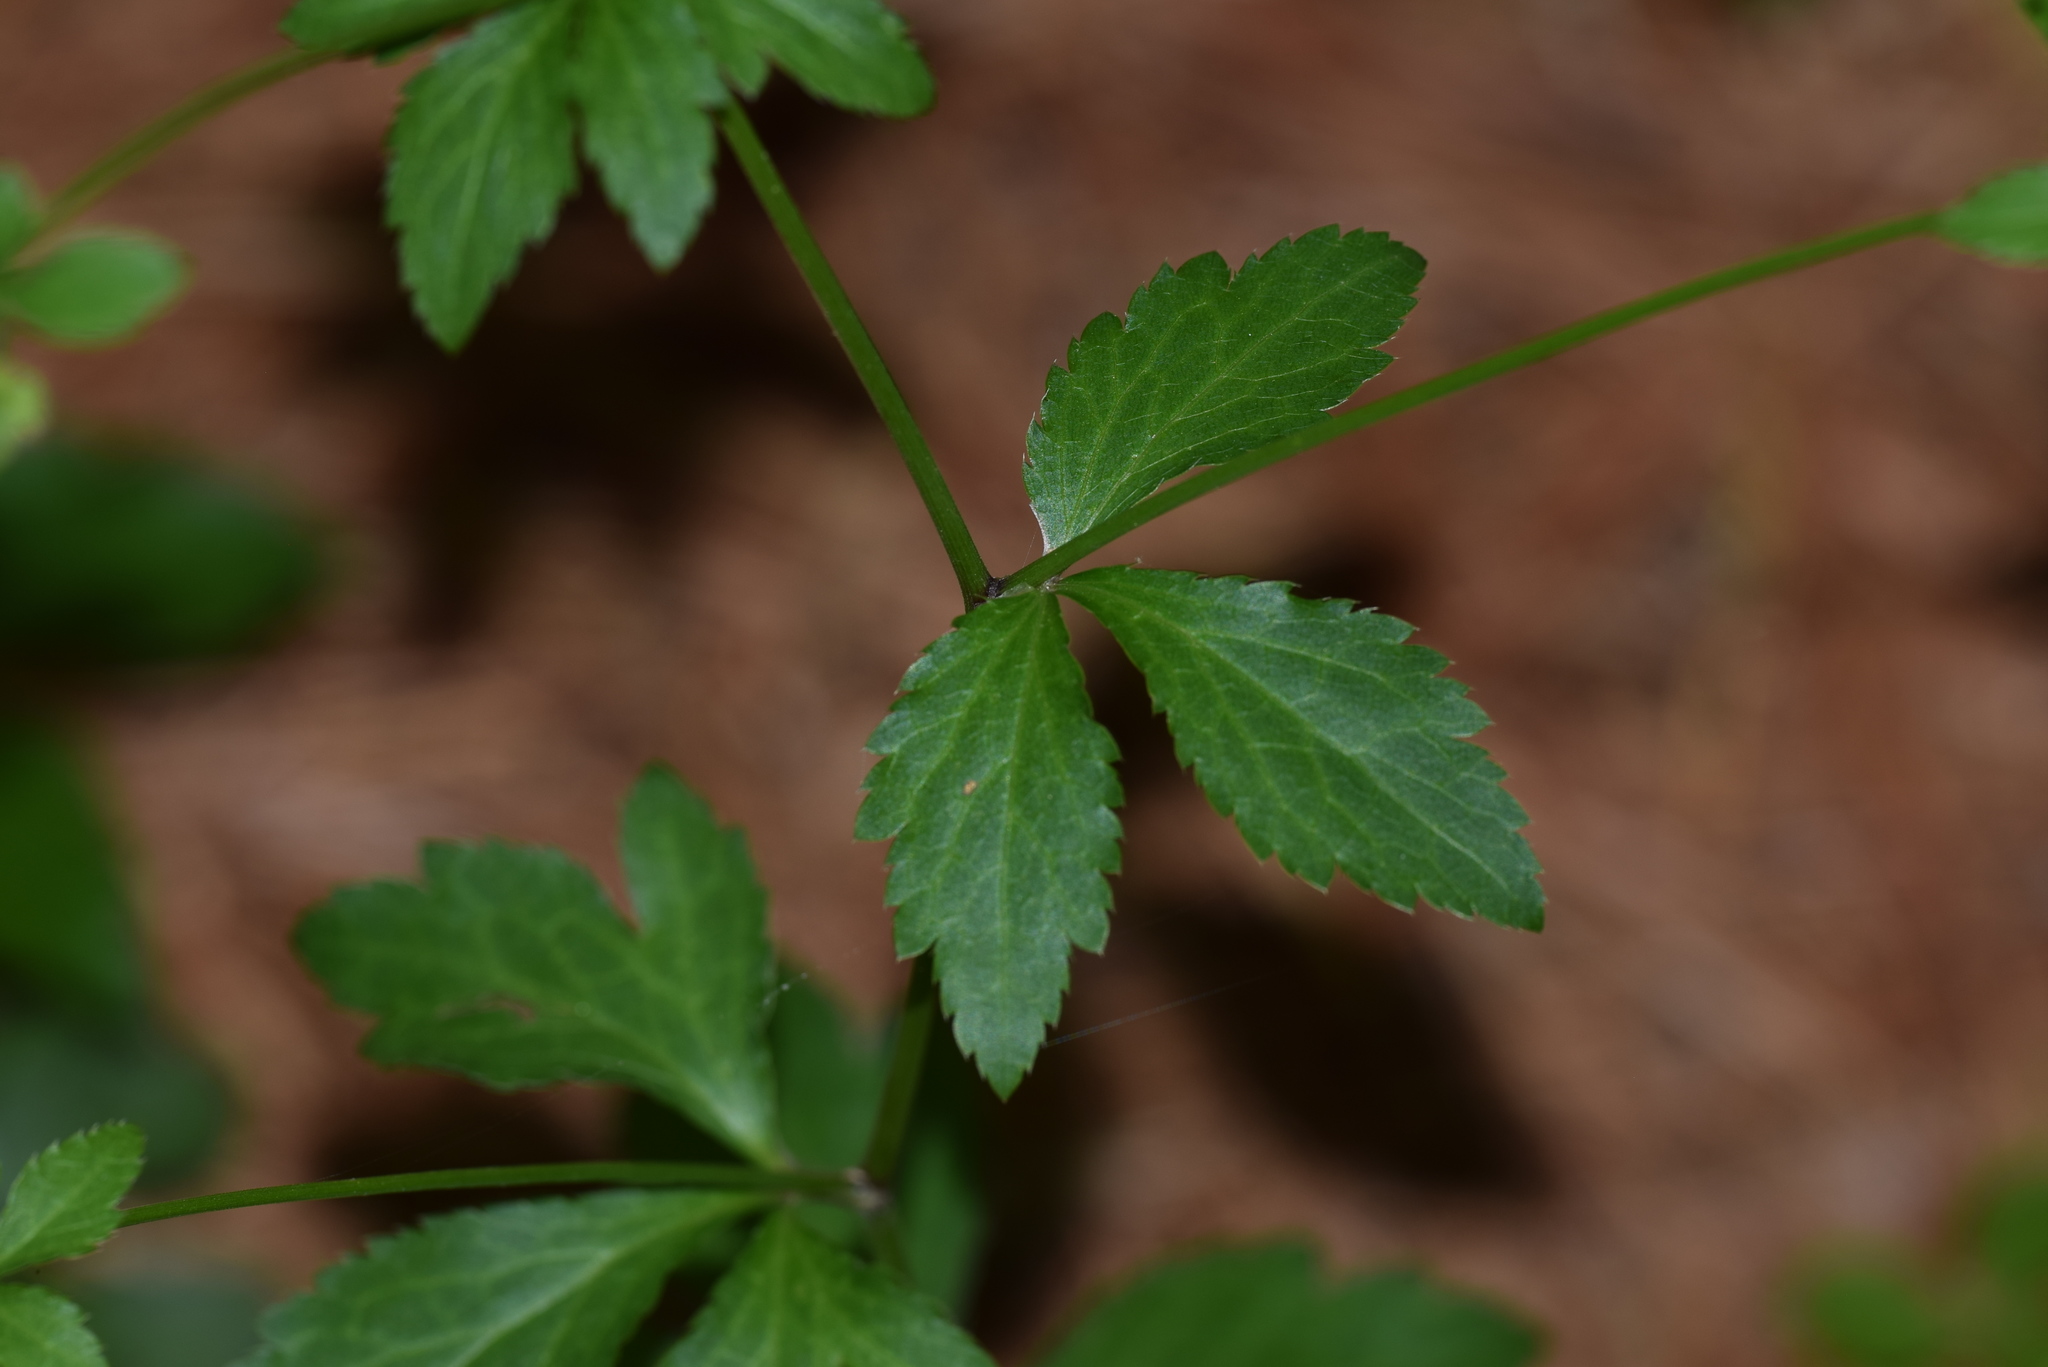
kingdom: Plantae
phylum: Tracheophyta
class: Magnoliopsida
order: Apiales
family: Apiaceae
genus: Sanicula
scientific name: Sanicula canadensis
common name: Canada sanicle
